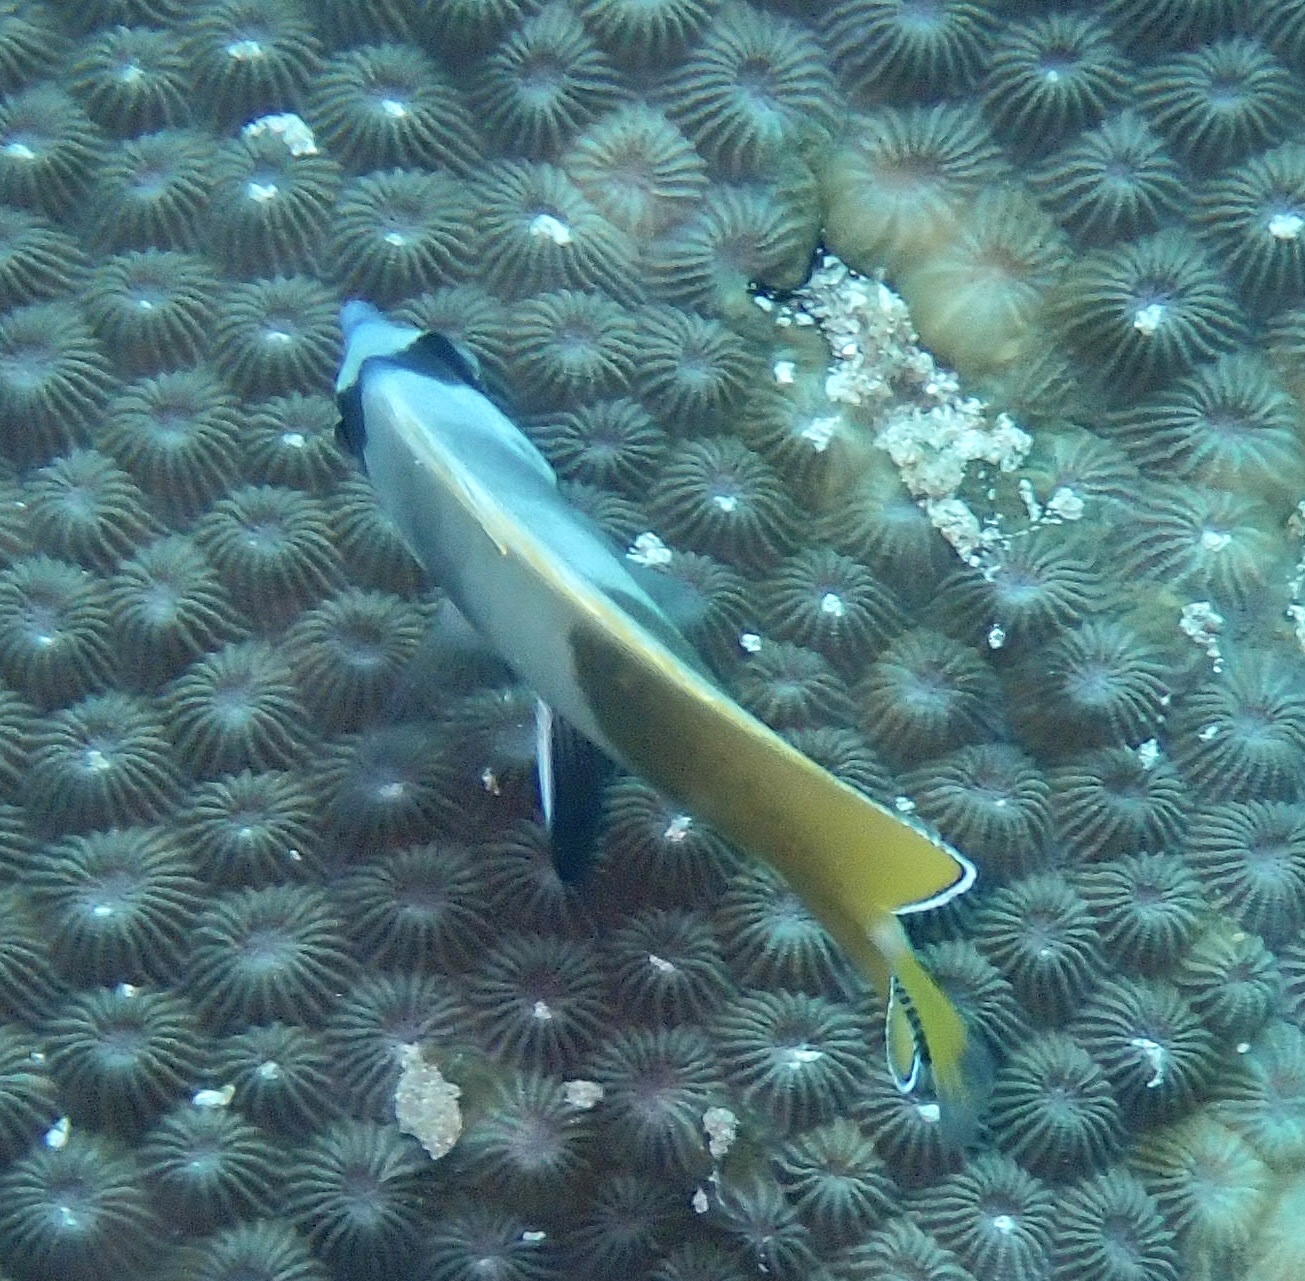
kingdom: Animalia
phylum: Chordata
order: Perciformes
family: Chaetodontidae
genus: Chaetodon
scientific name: Chaetodon kleinii
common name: Klein's butterflyfish
